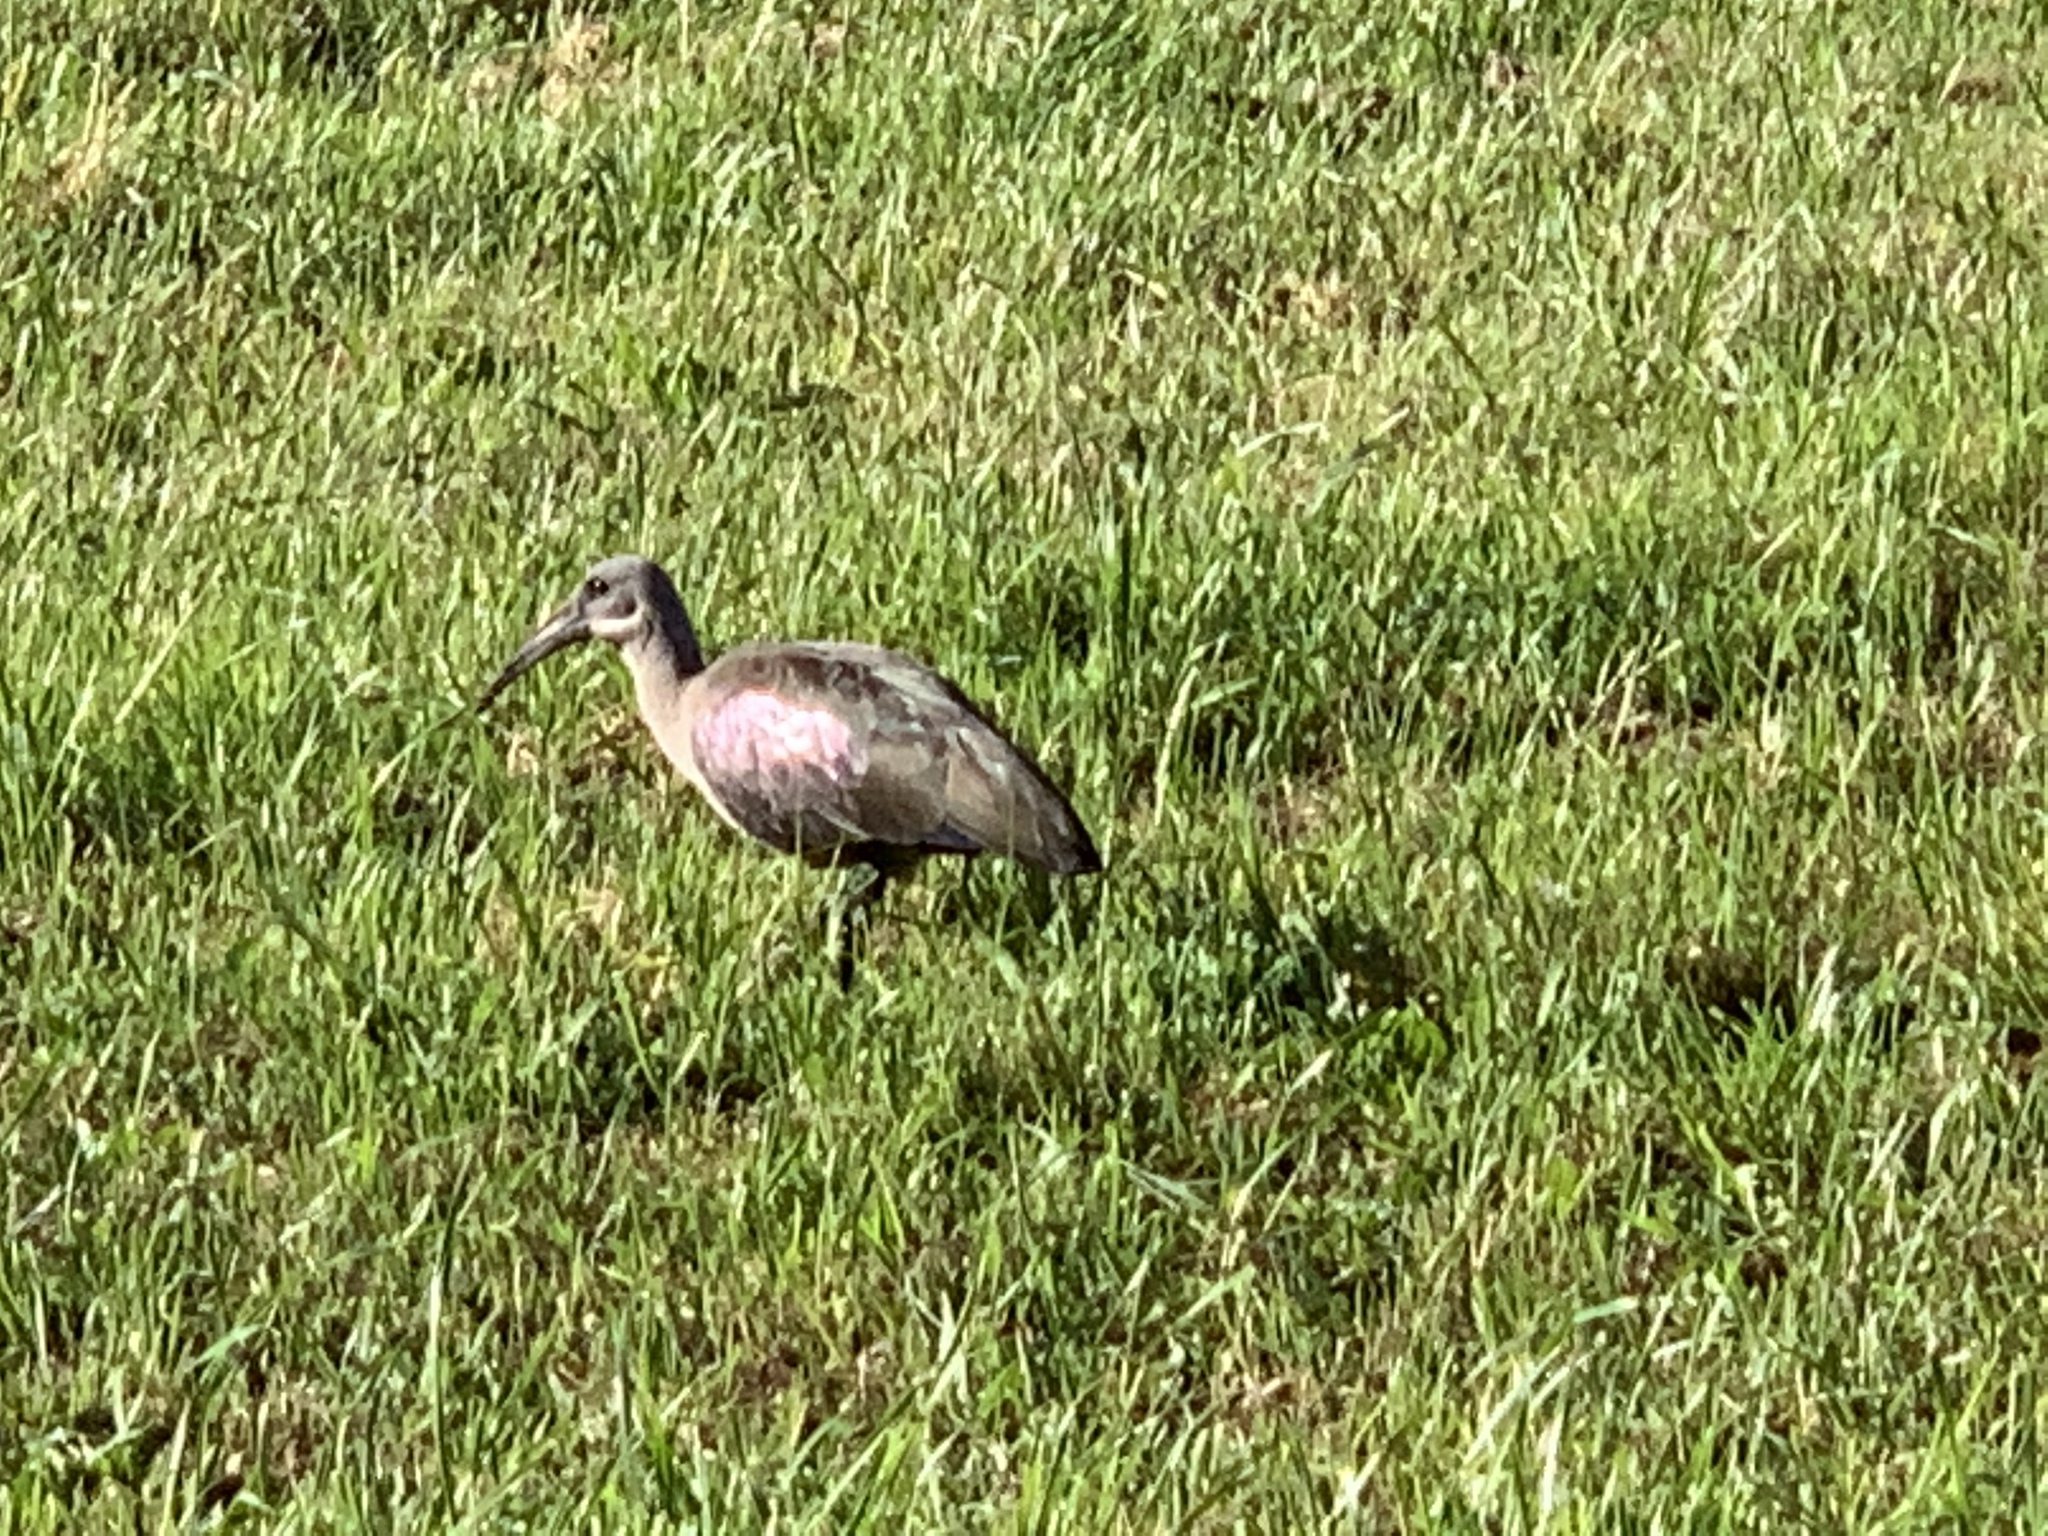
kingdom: Animalia
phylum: Chordata
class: Aves
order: Pelecaniformes
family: Threskiornithidae
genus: Bostrychia
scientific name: Bostrychia hagedash
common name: Hadada ibis
